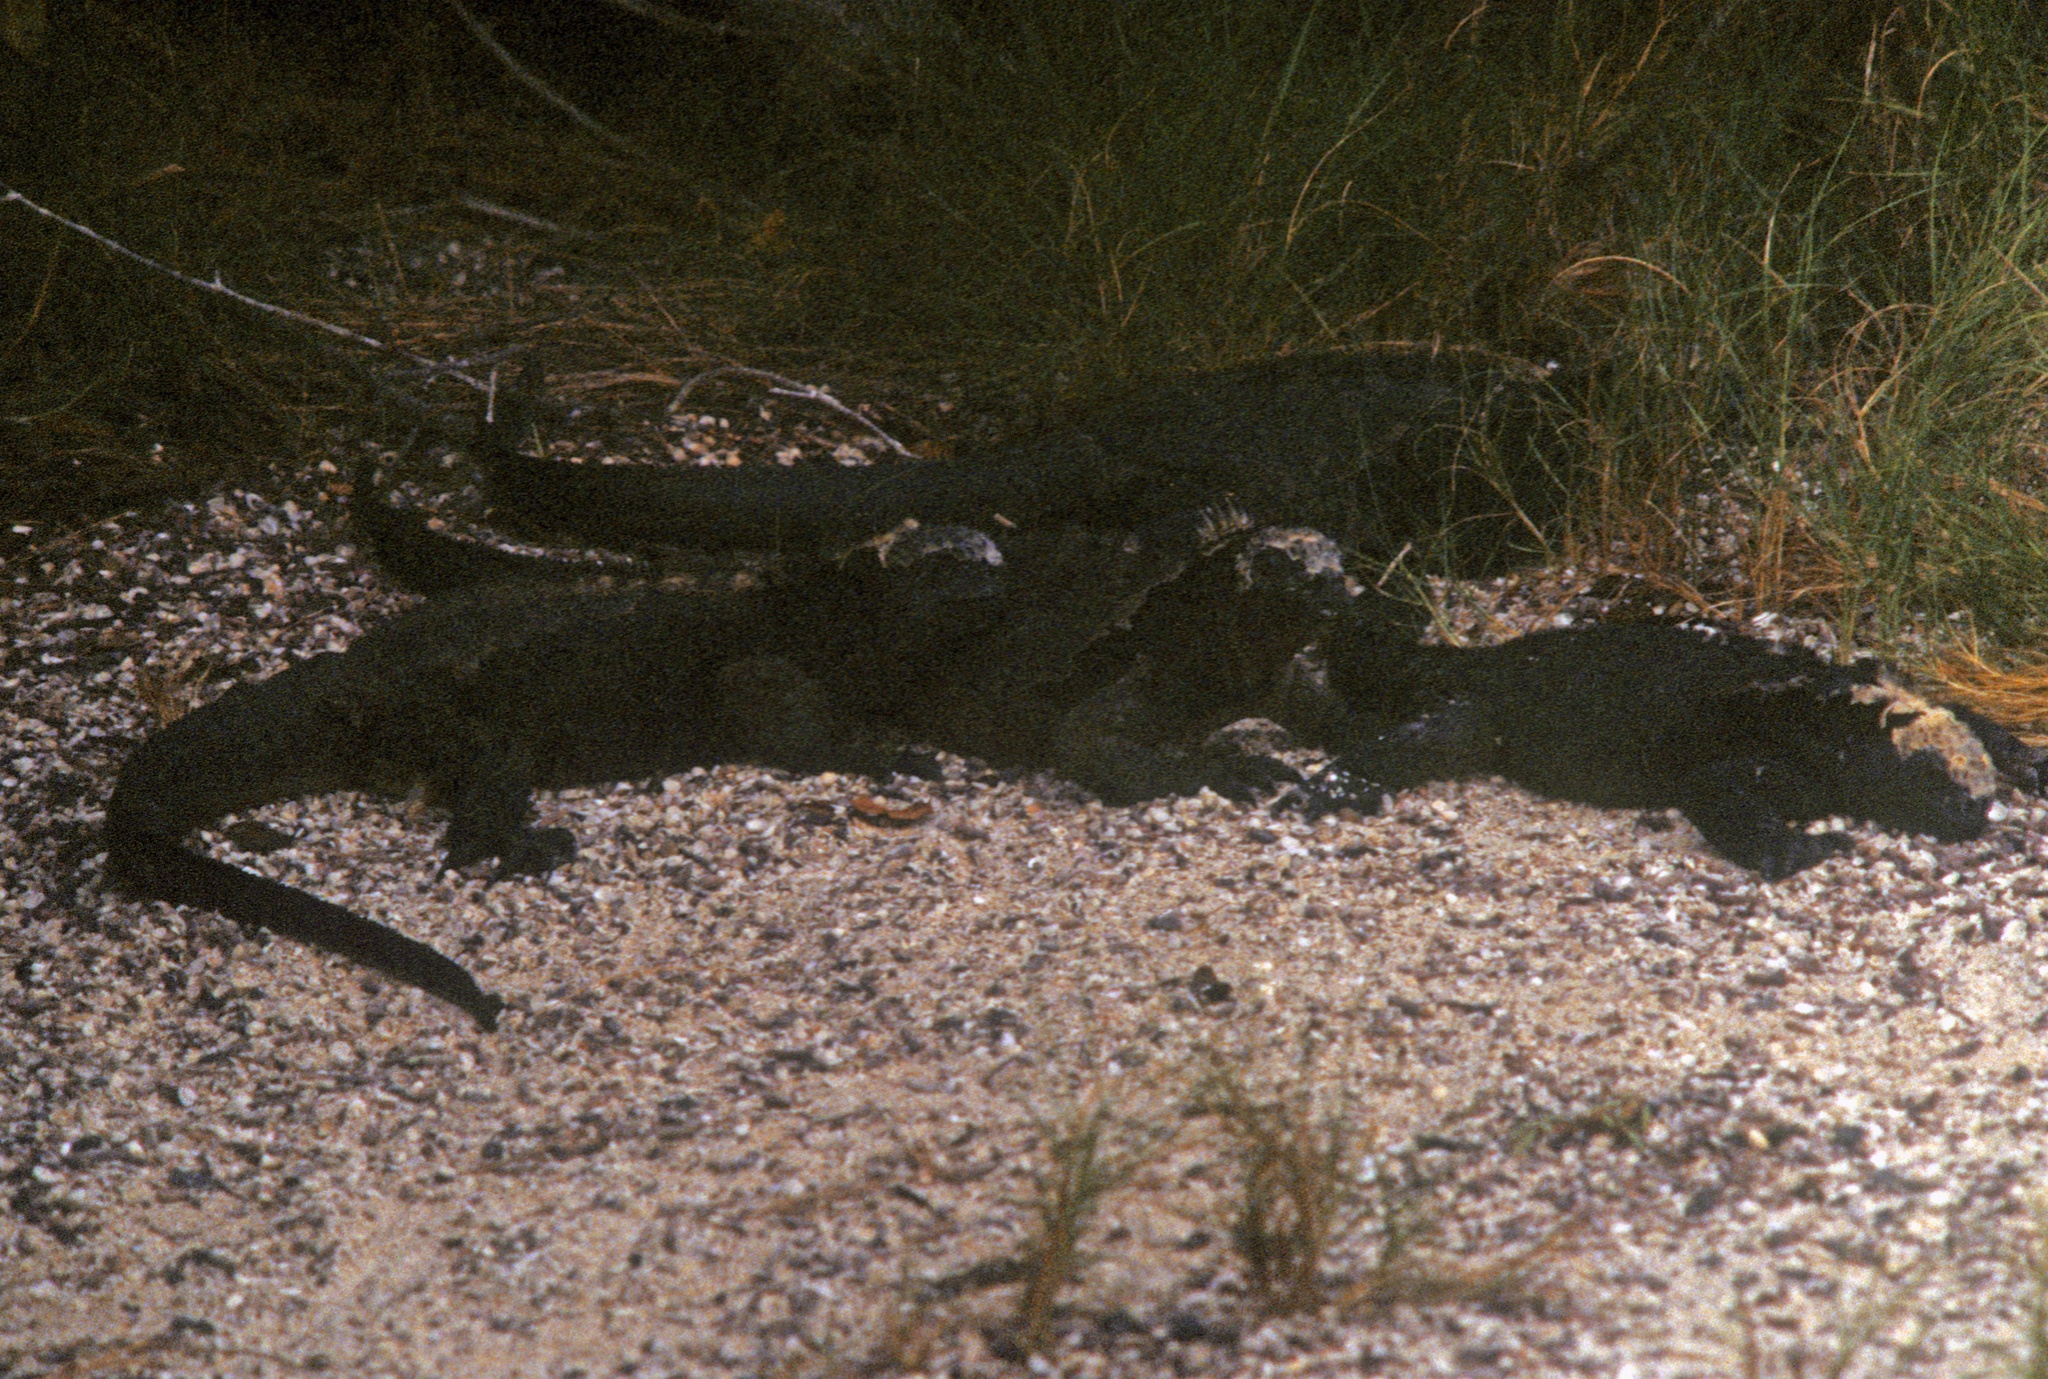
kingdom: Animalia
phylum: Chordata
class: Squamata
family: Iguanidae
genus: Amblyrhynchus
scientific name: Amblyrhynchus cristatus
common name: Marine iguana
